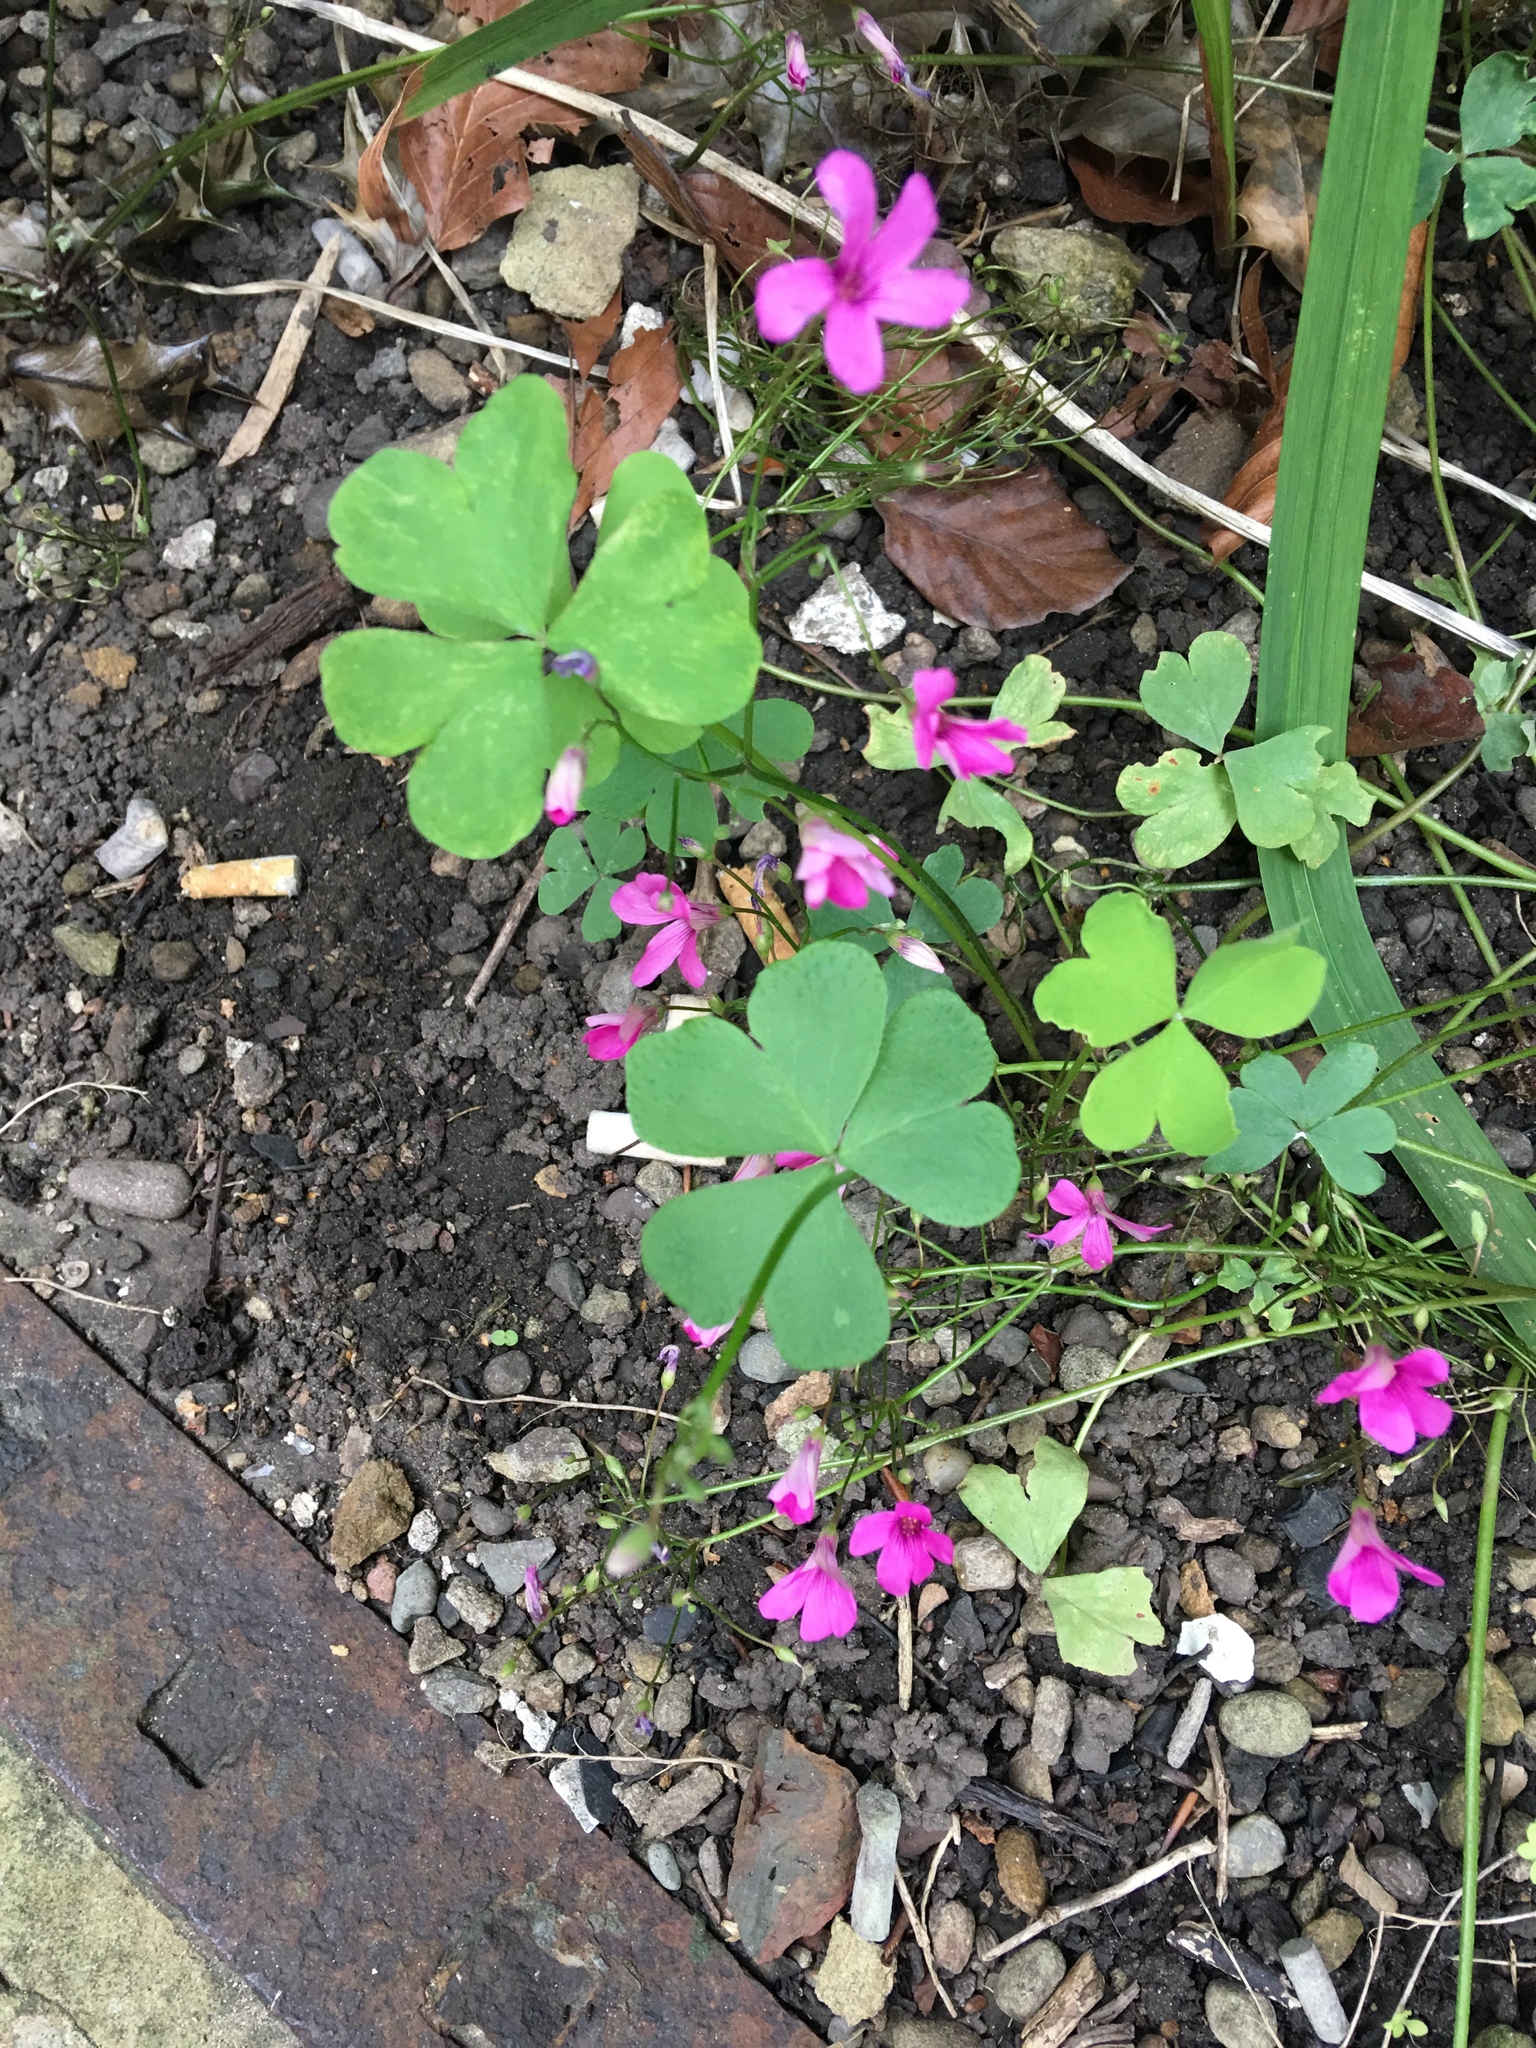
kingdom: Plantae
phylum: Tracheophyta
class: Magnoliopsida
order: Oxalidales
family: Oxalidaceae
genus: Oxalis
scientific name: Oxalis articulata
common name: Pink-sorrel
